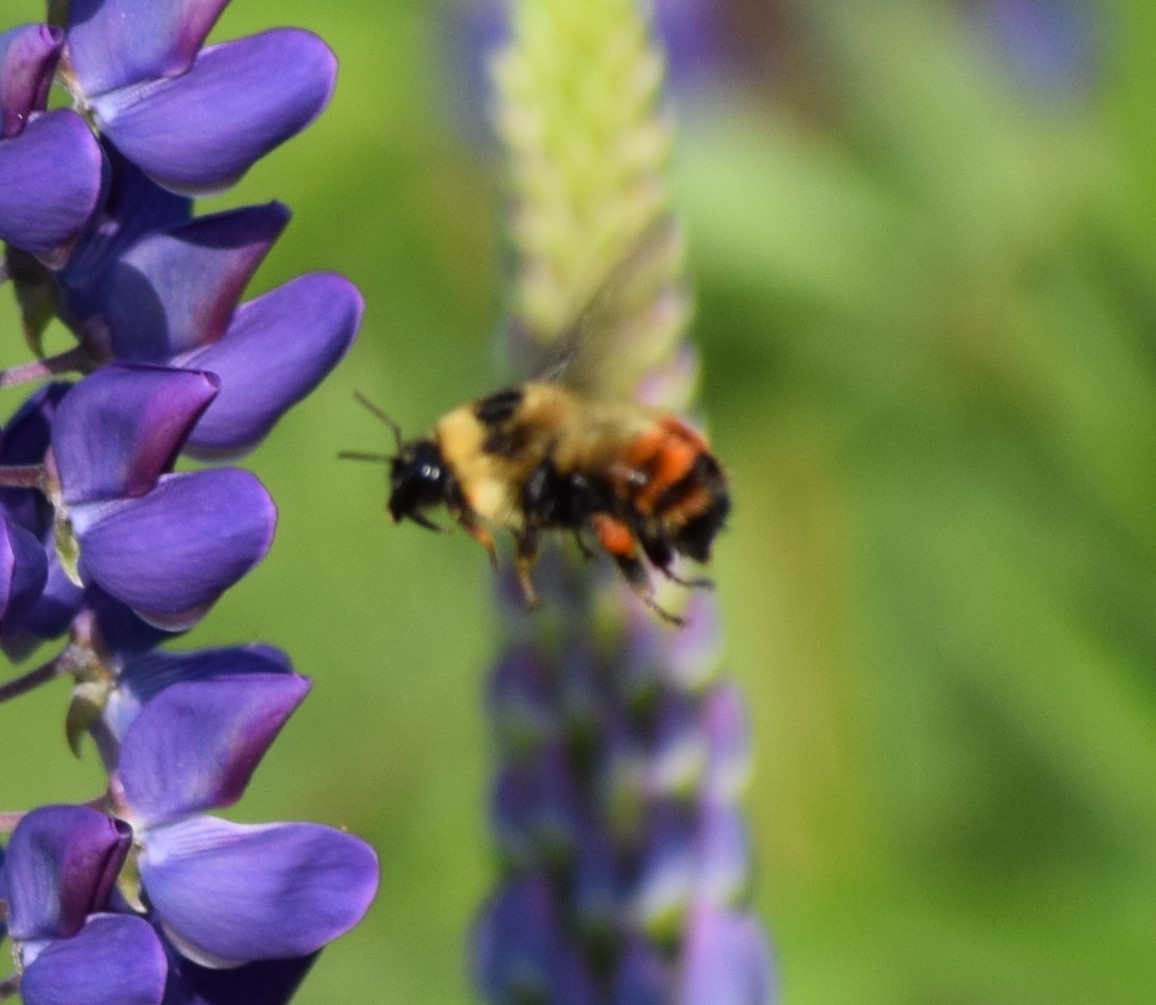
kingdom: Animalia
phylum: Arthropoda
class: Insecta
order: Hymenoptera
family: Apidae
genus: Bombus
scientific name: Bombus rufocinctus
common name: Red-belted bumble bee
